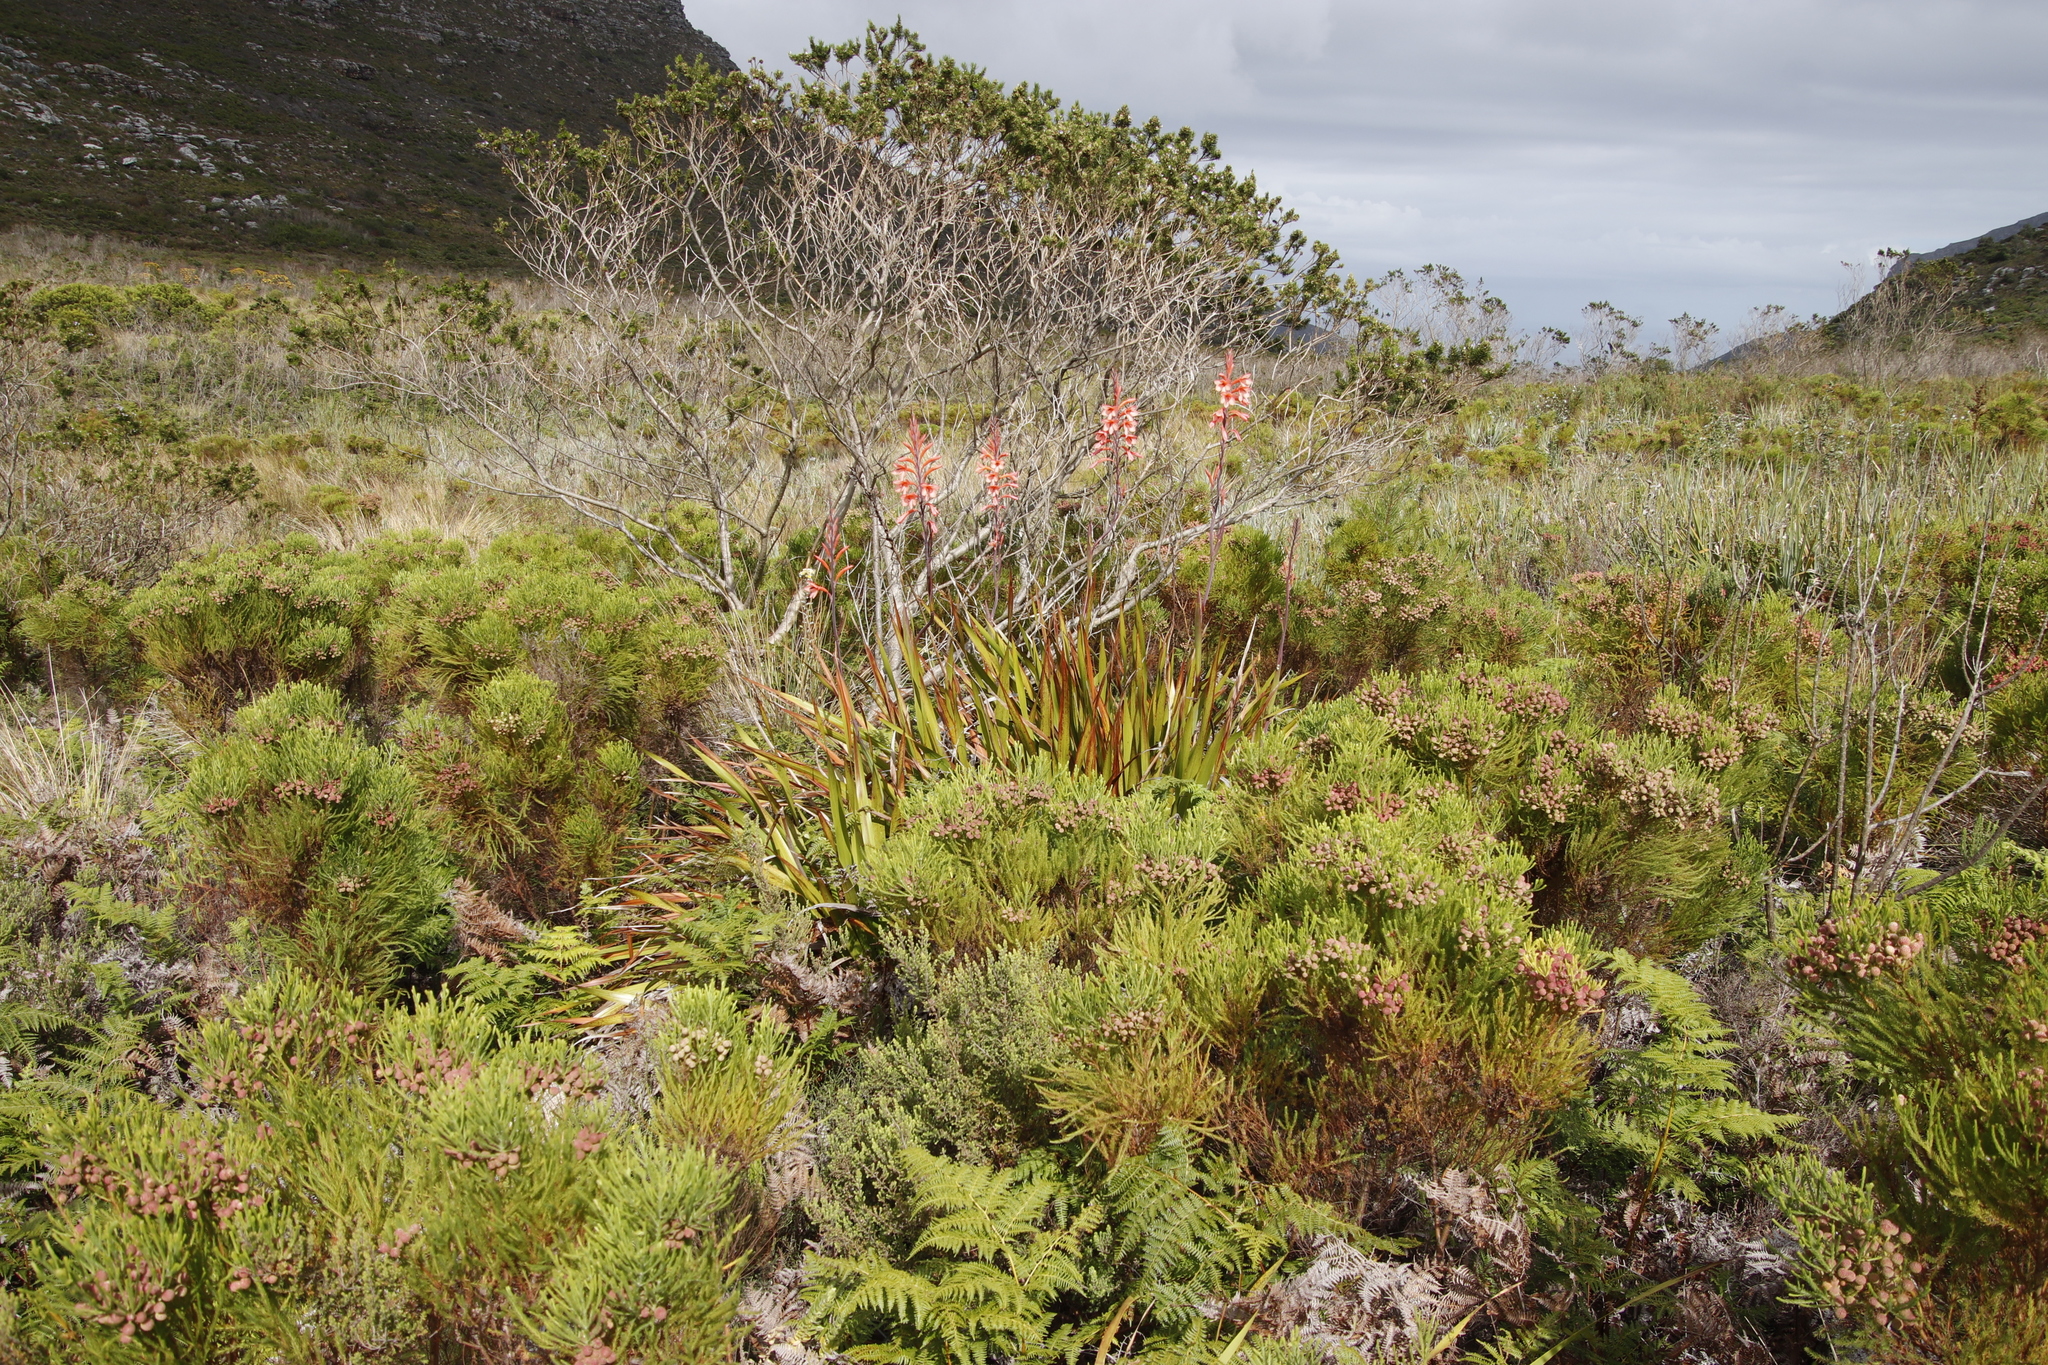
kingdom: Plantae
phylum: Tracheophyta
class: Liliopsida
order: Asparagales
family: Iridaceae
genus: Watsonia
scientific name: Watsonia tabularis
